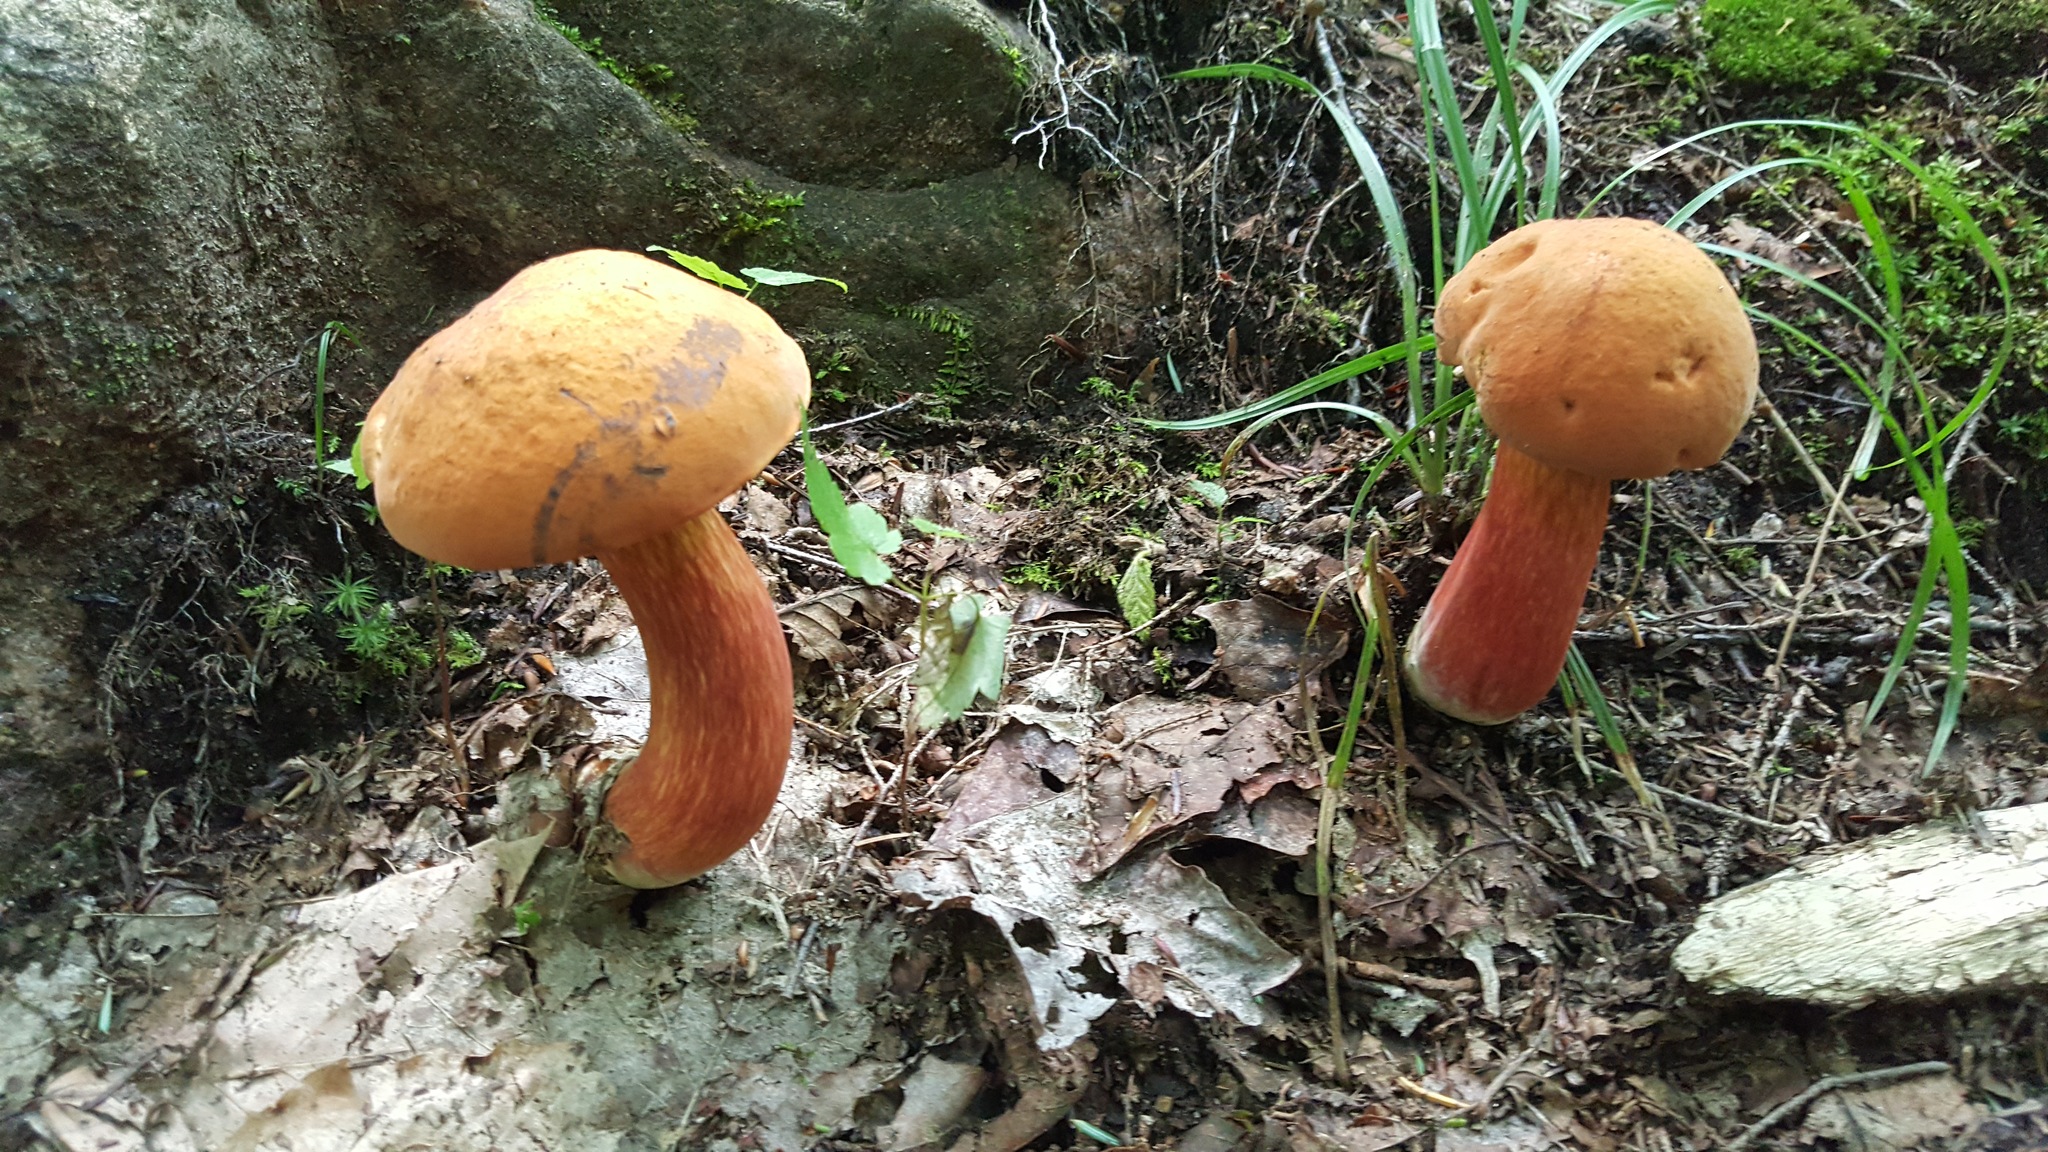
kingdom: Fungi
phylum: Basidiomycota
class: Agaricomycetes
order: Boletales
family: Boletaceae
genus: Boletus
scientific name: Boletus subvelutipes
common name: Red-mouth bolete
